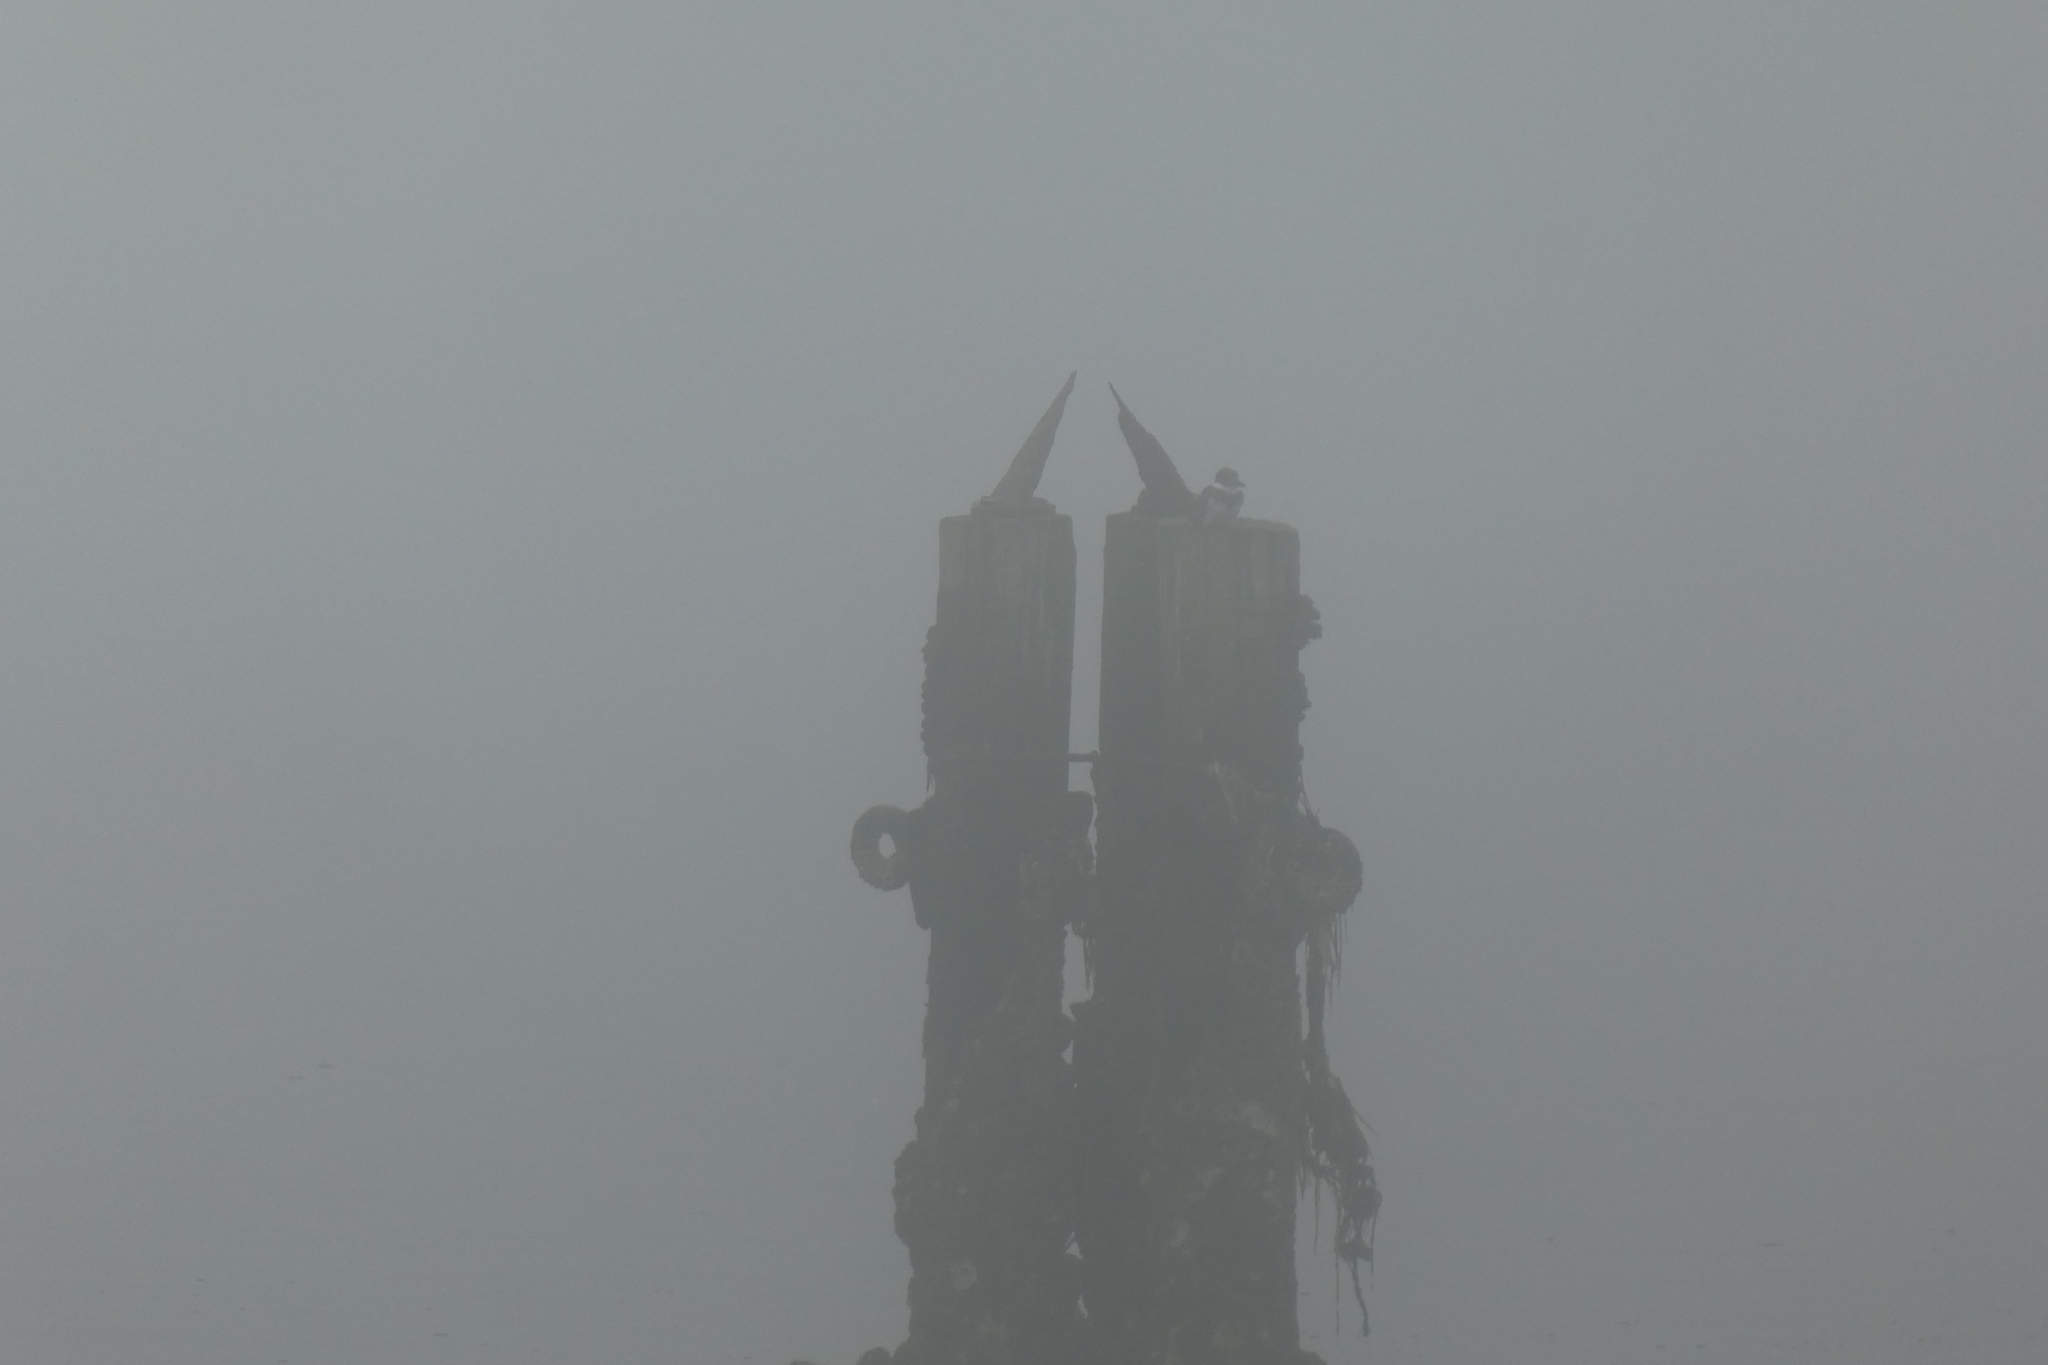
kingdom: Animalia
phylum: Chordata
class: Aves
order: Coraciiformes
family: Alcedinidae
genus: Megaceryle
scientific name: Megaceryle alcyon
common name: Belted kingfisher
